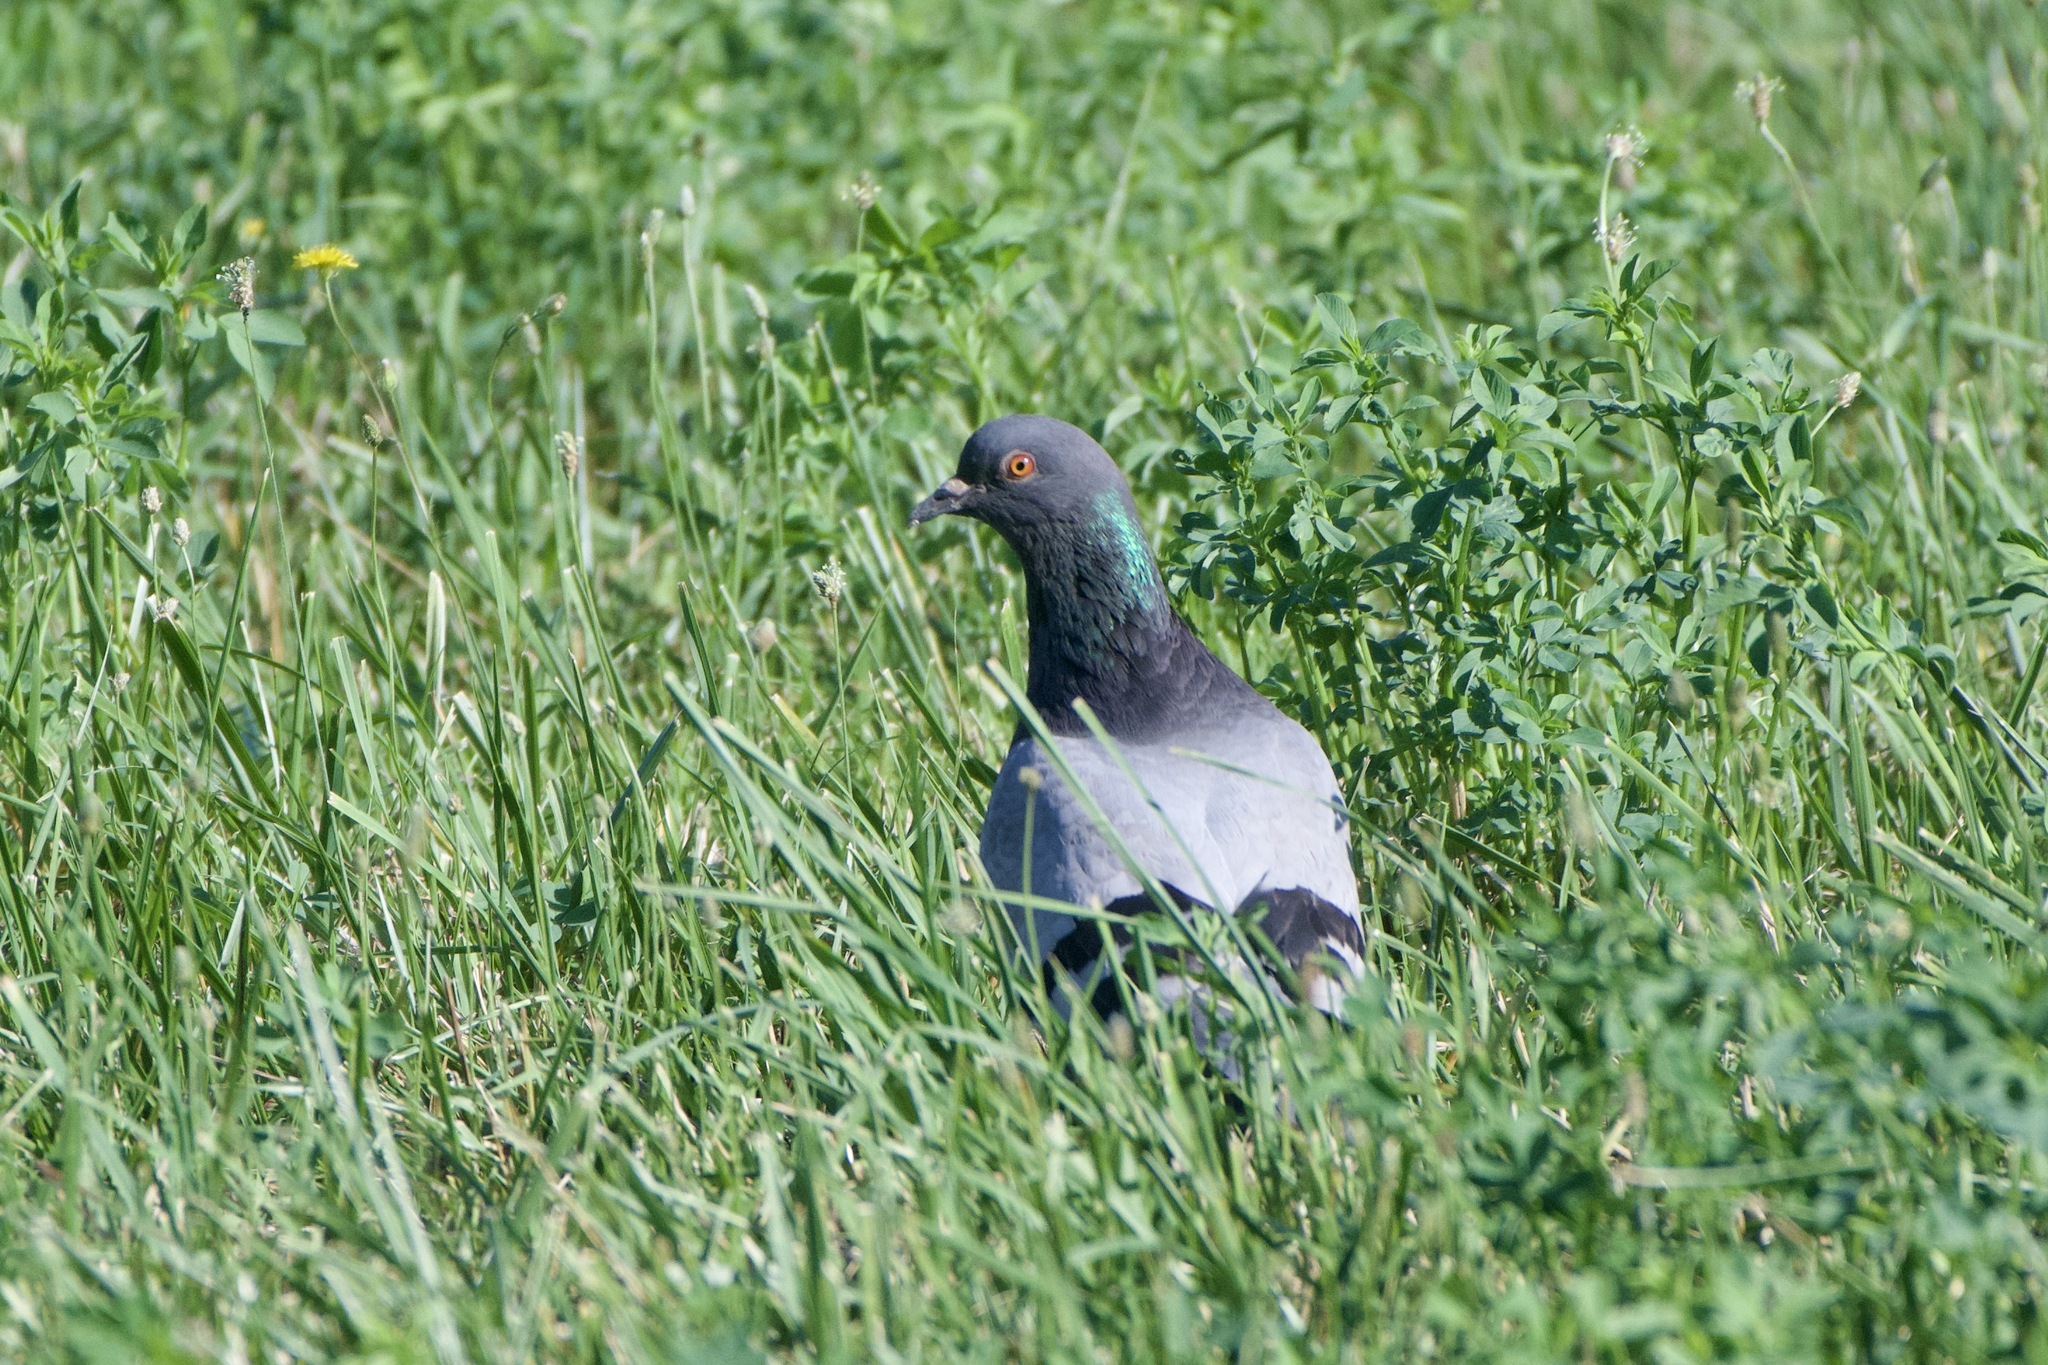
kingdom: Animalia
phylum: Chordata
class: Aves
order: Columbiformes
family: Columbidae
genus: Columba
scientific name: Columba livia
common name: Rock pigeon
